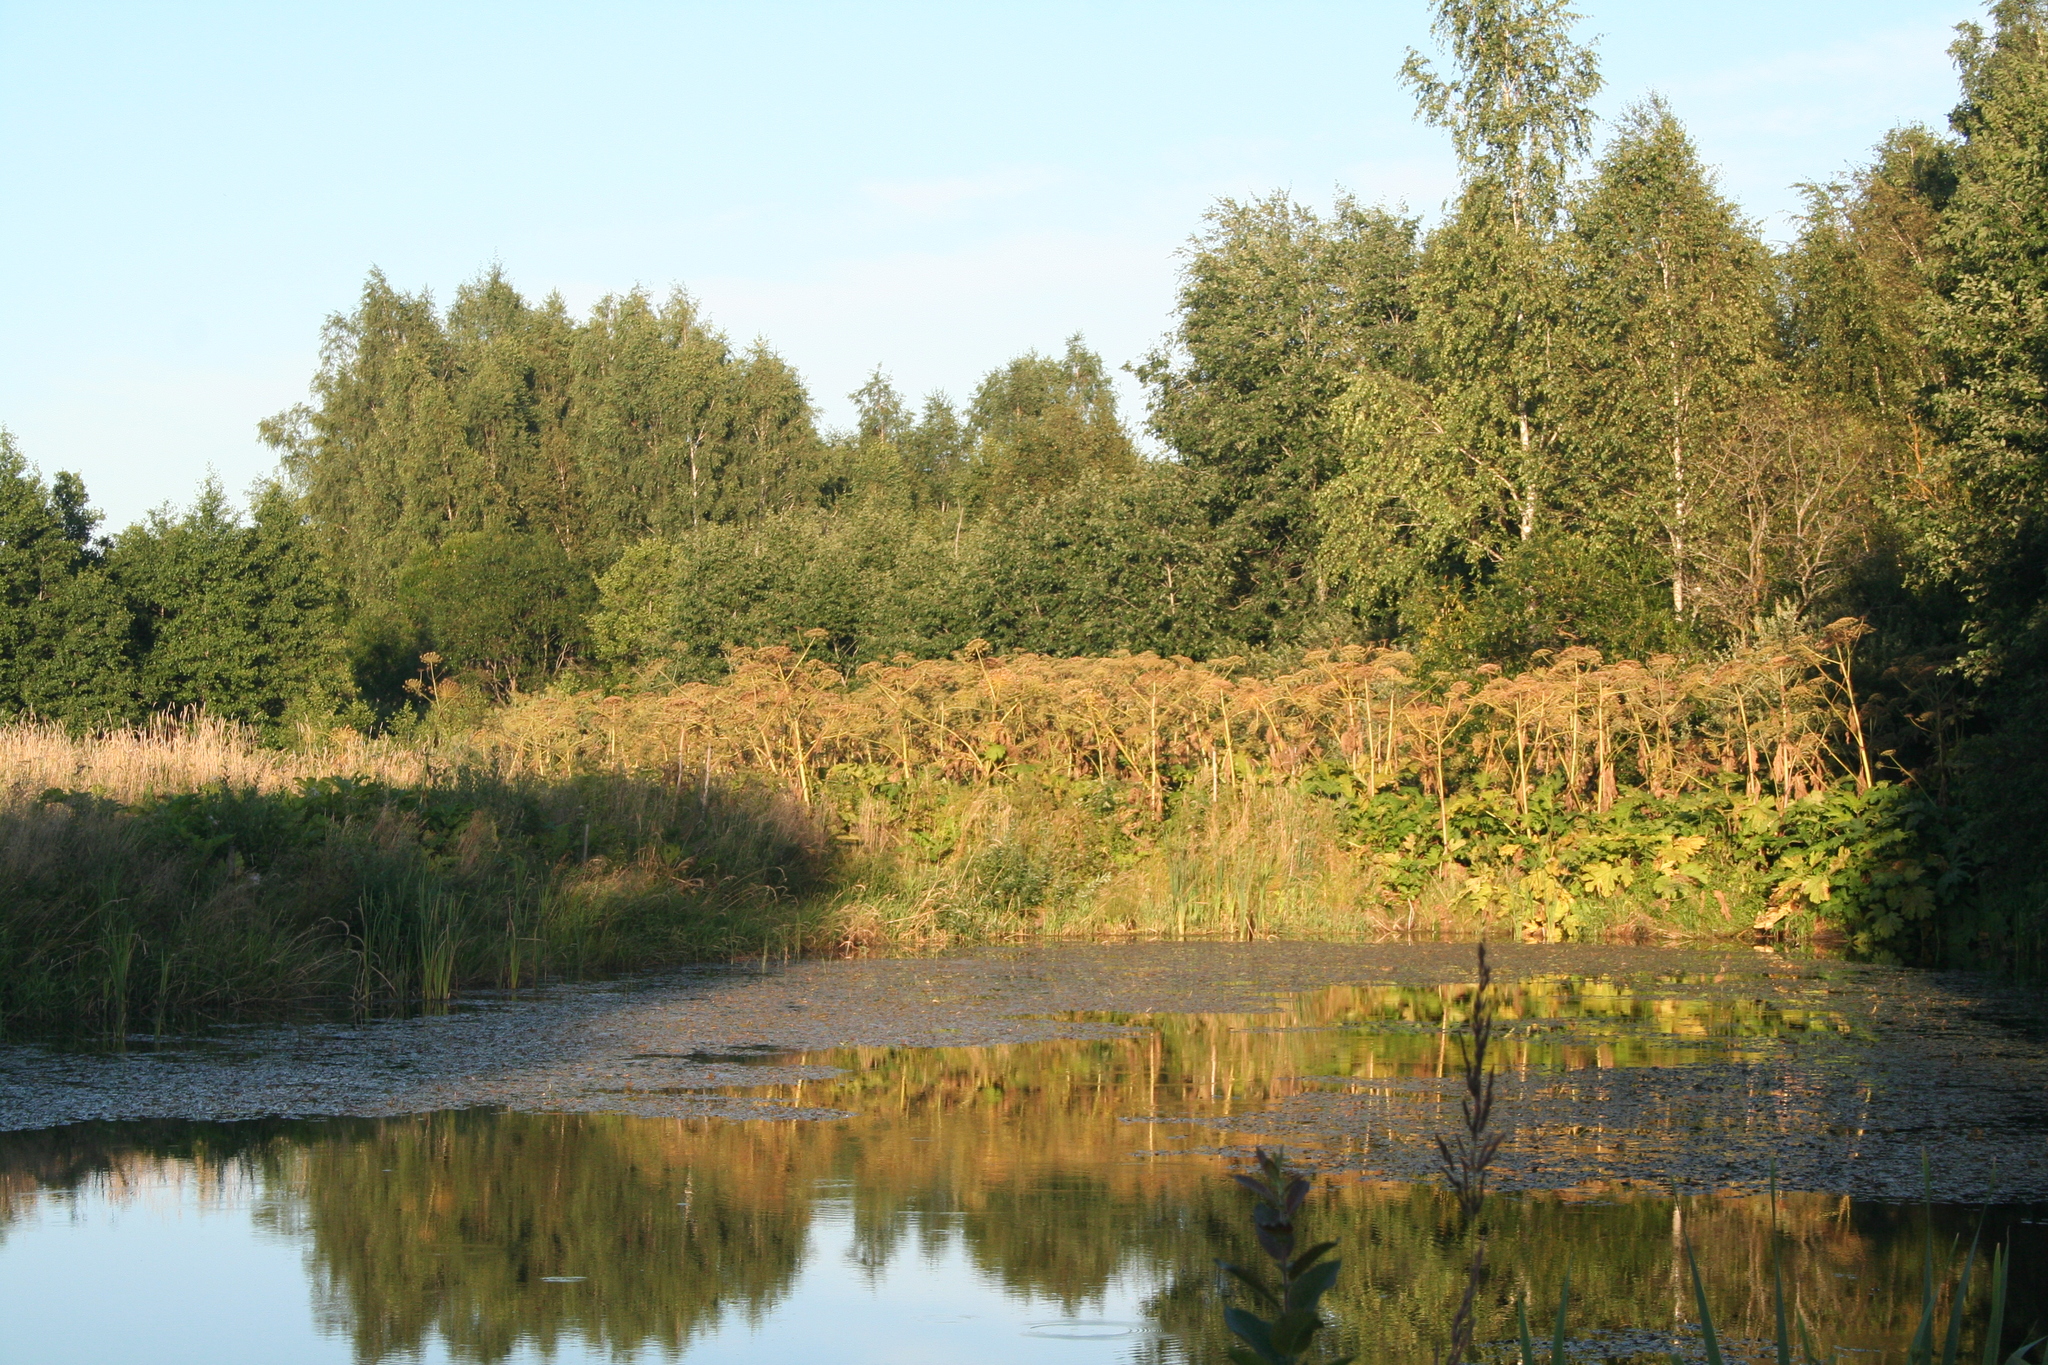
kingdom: Plantae
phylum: Tracheophyta
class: Magnoliopsida
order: Apiales
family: Apiaceae
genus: Heracleum
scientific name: Heracleum sosnowskyi
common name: Sosnowsky's hogweed
